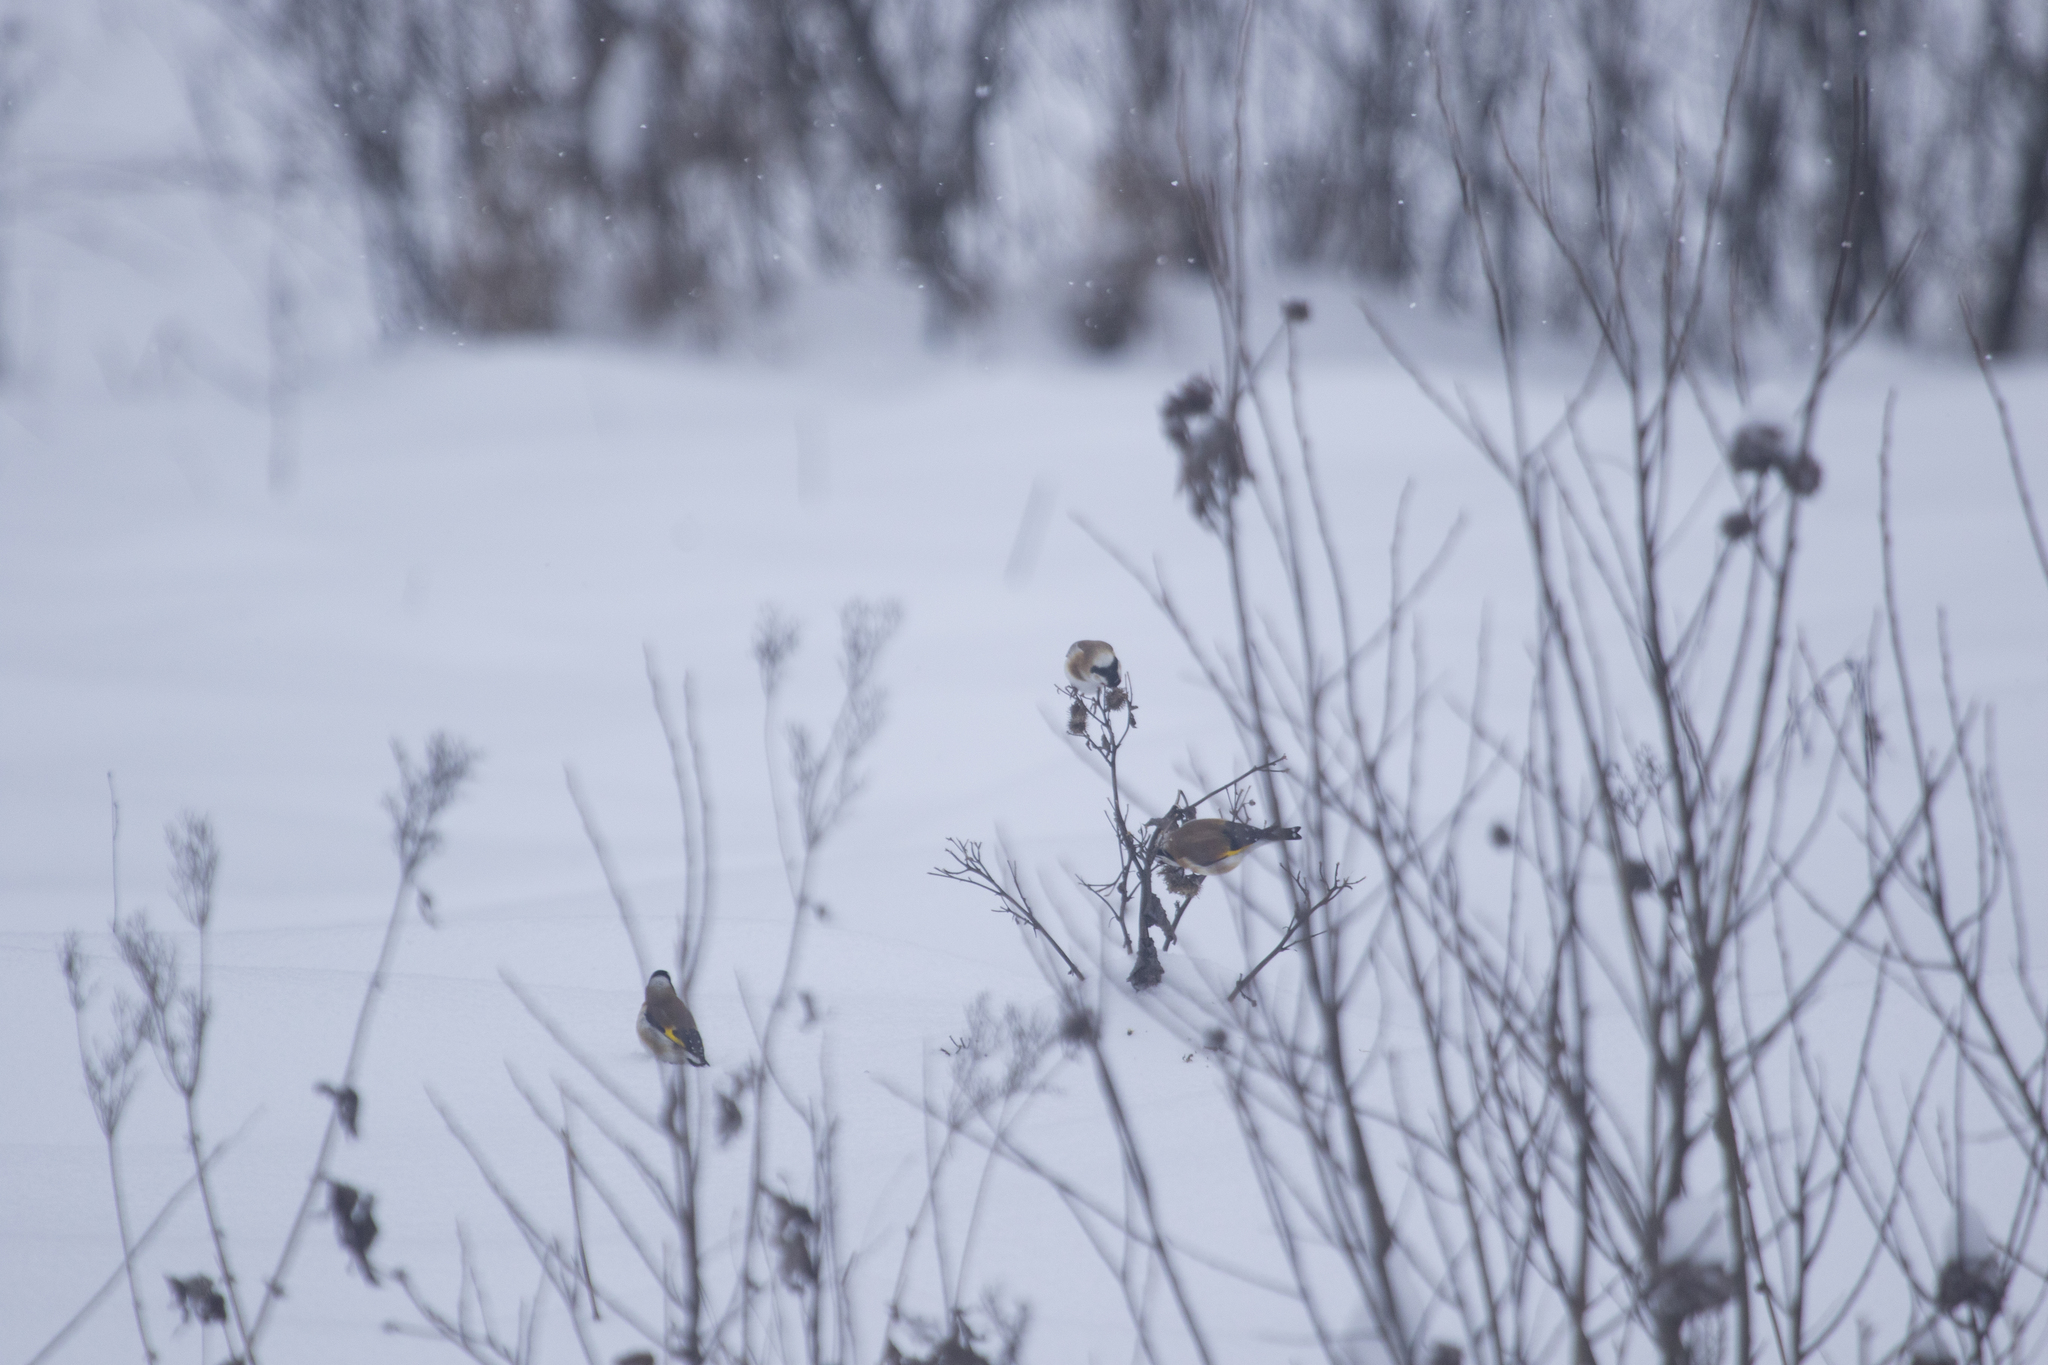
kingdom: Animalia
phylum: Chordata
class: Aves
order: Passeriformes
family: Fringillidae
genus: Carduelis
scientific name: Carduelis carduelis
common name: European goldfinch
